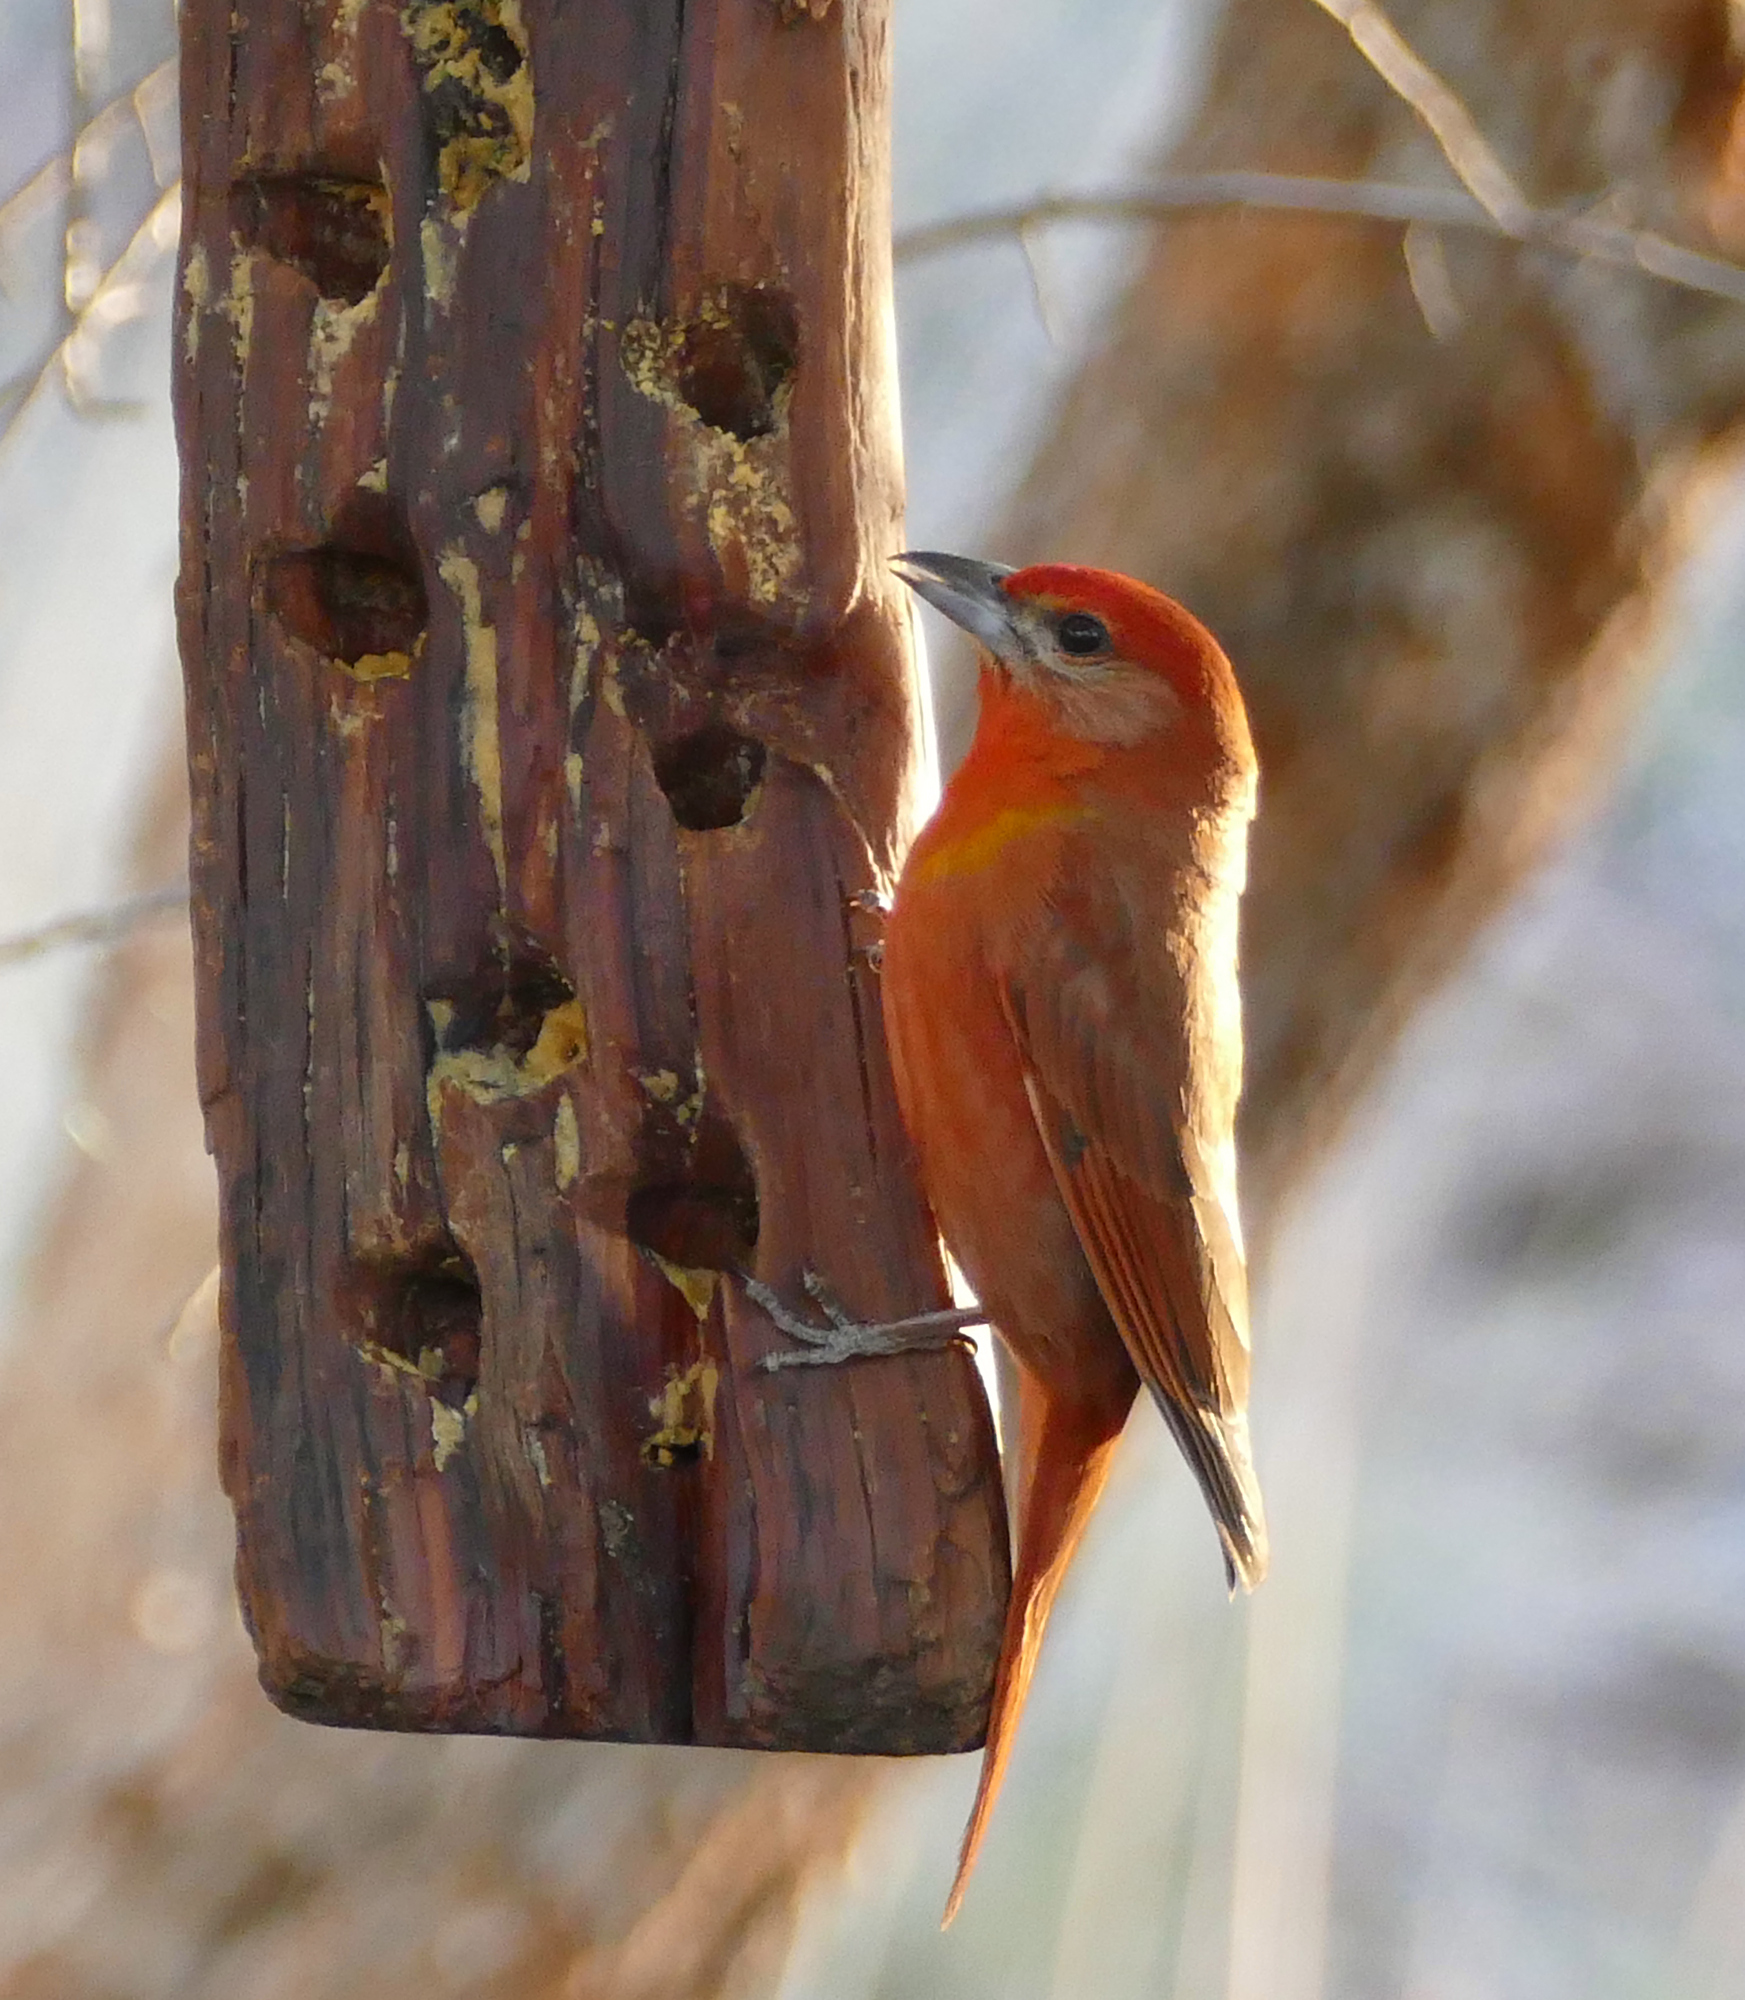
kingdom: Animalia
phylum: Chordata
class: Aves
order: Passeriformes
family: Cardinalidae
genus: Piranga
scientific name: Piranga flava
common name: Red tanager
